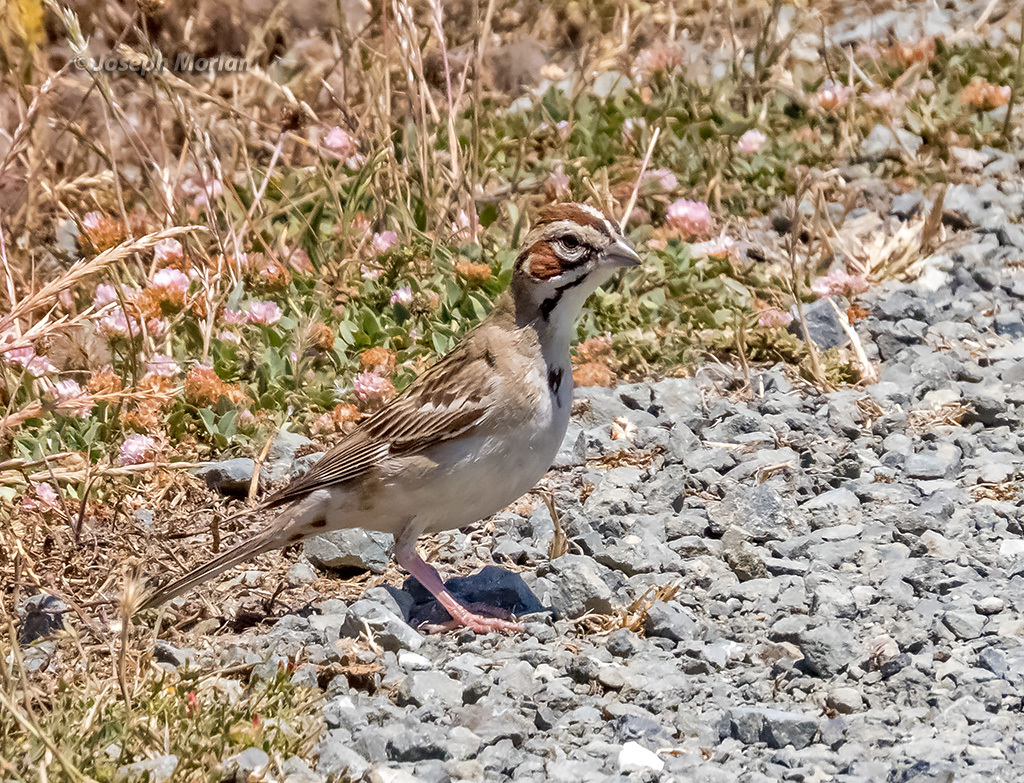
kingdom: Animalia
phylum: Chordata
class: Aves
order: Passeriformes
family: Passerellidae
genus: Chondestes
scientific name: Chondestes grammacus
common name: Lark sparrow
